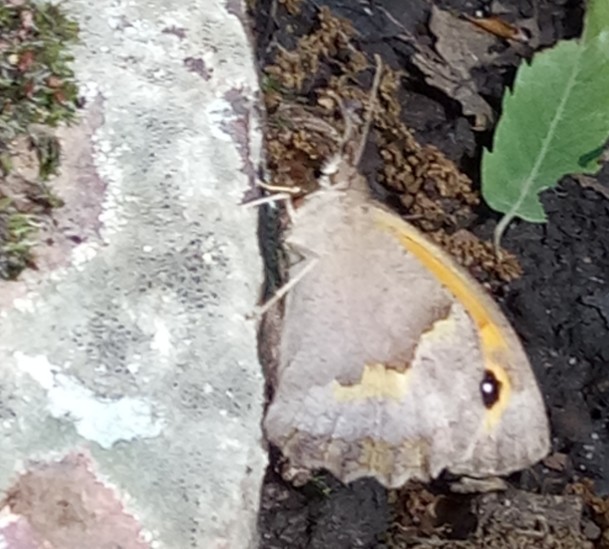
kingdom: Animalia
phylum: Arthropoda
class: Insecta
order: Lepidoptera
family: Nymphalidae
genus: Maniola
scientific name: Maniola jurtina
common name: Meadow brown
